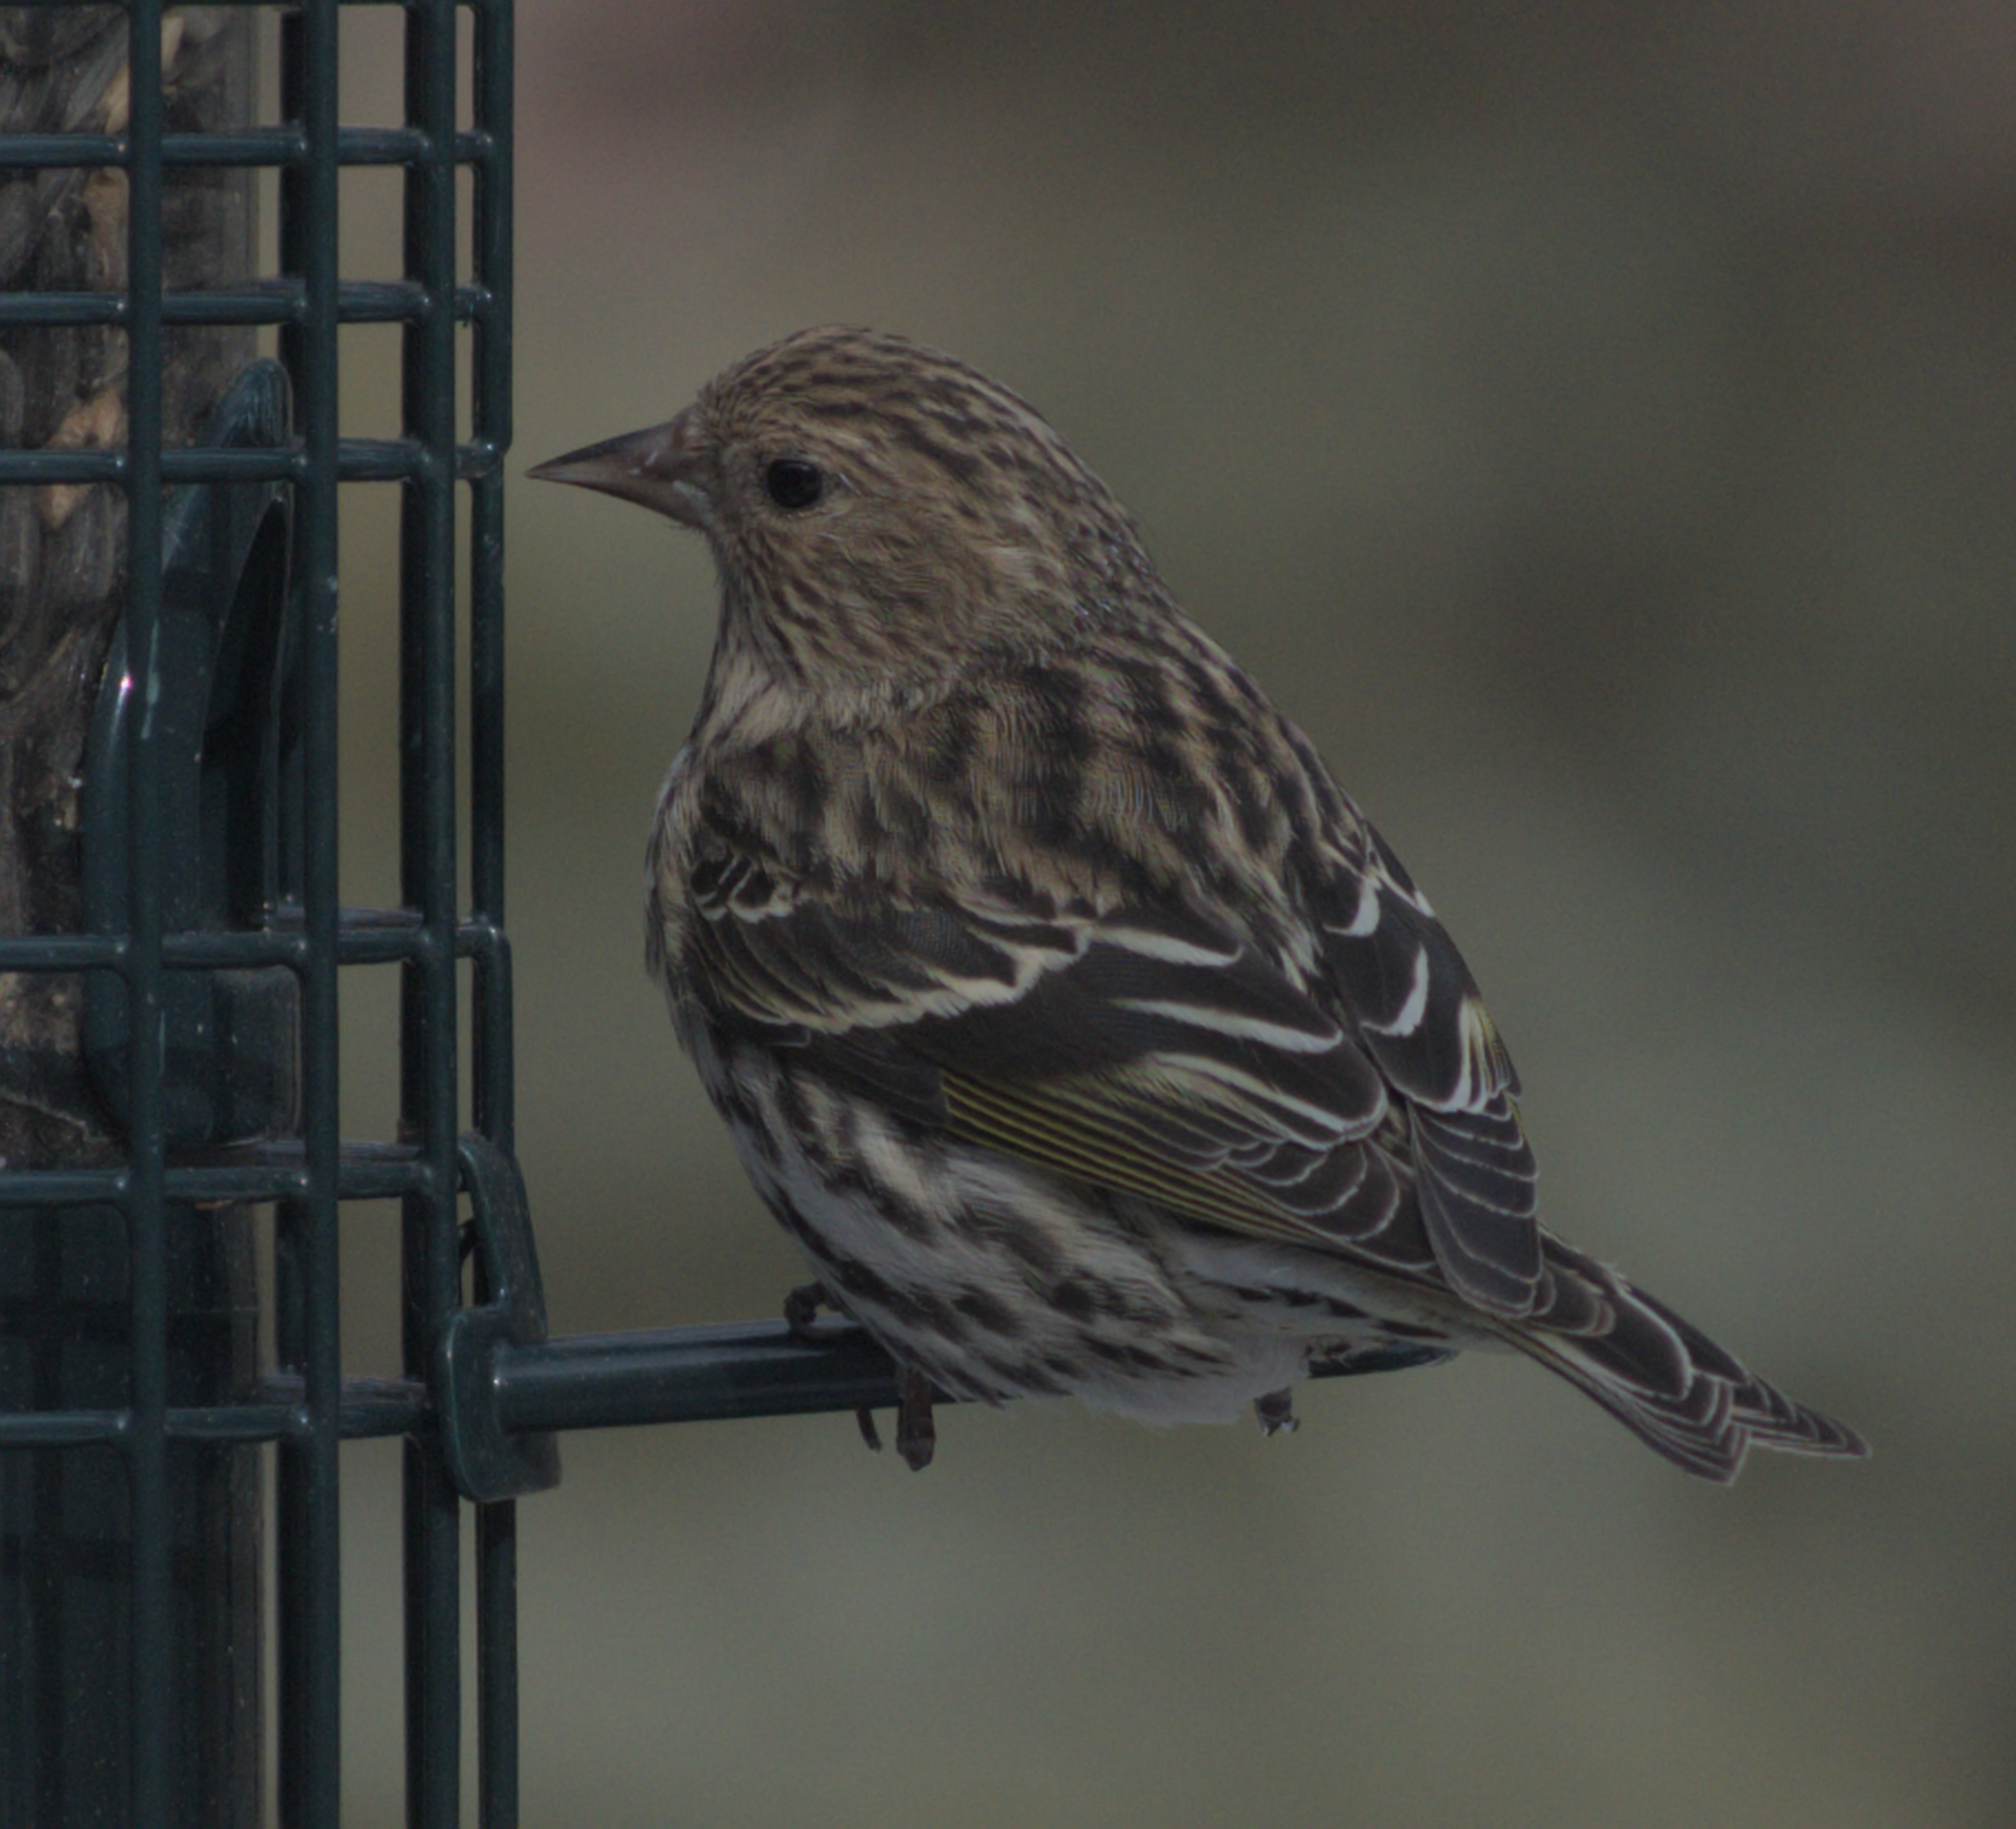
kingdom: Animalia
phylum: Chordata
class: Aves
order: Passeriformes
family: Fringillidae
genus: Spinus
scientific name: Spinus pinus
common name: Pine siskin
